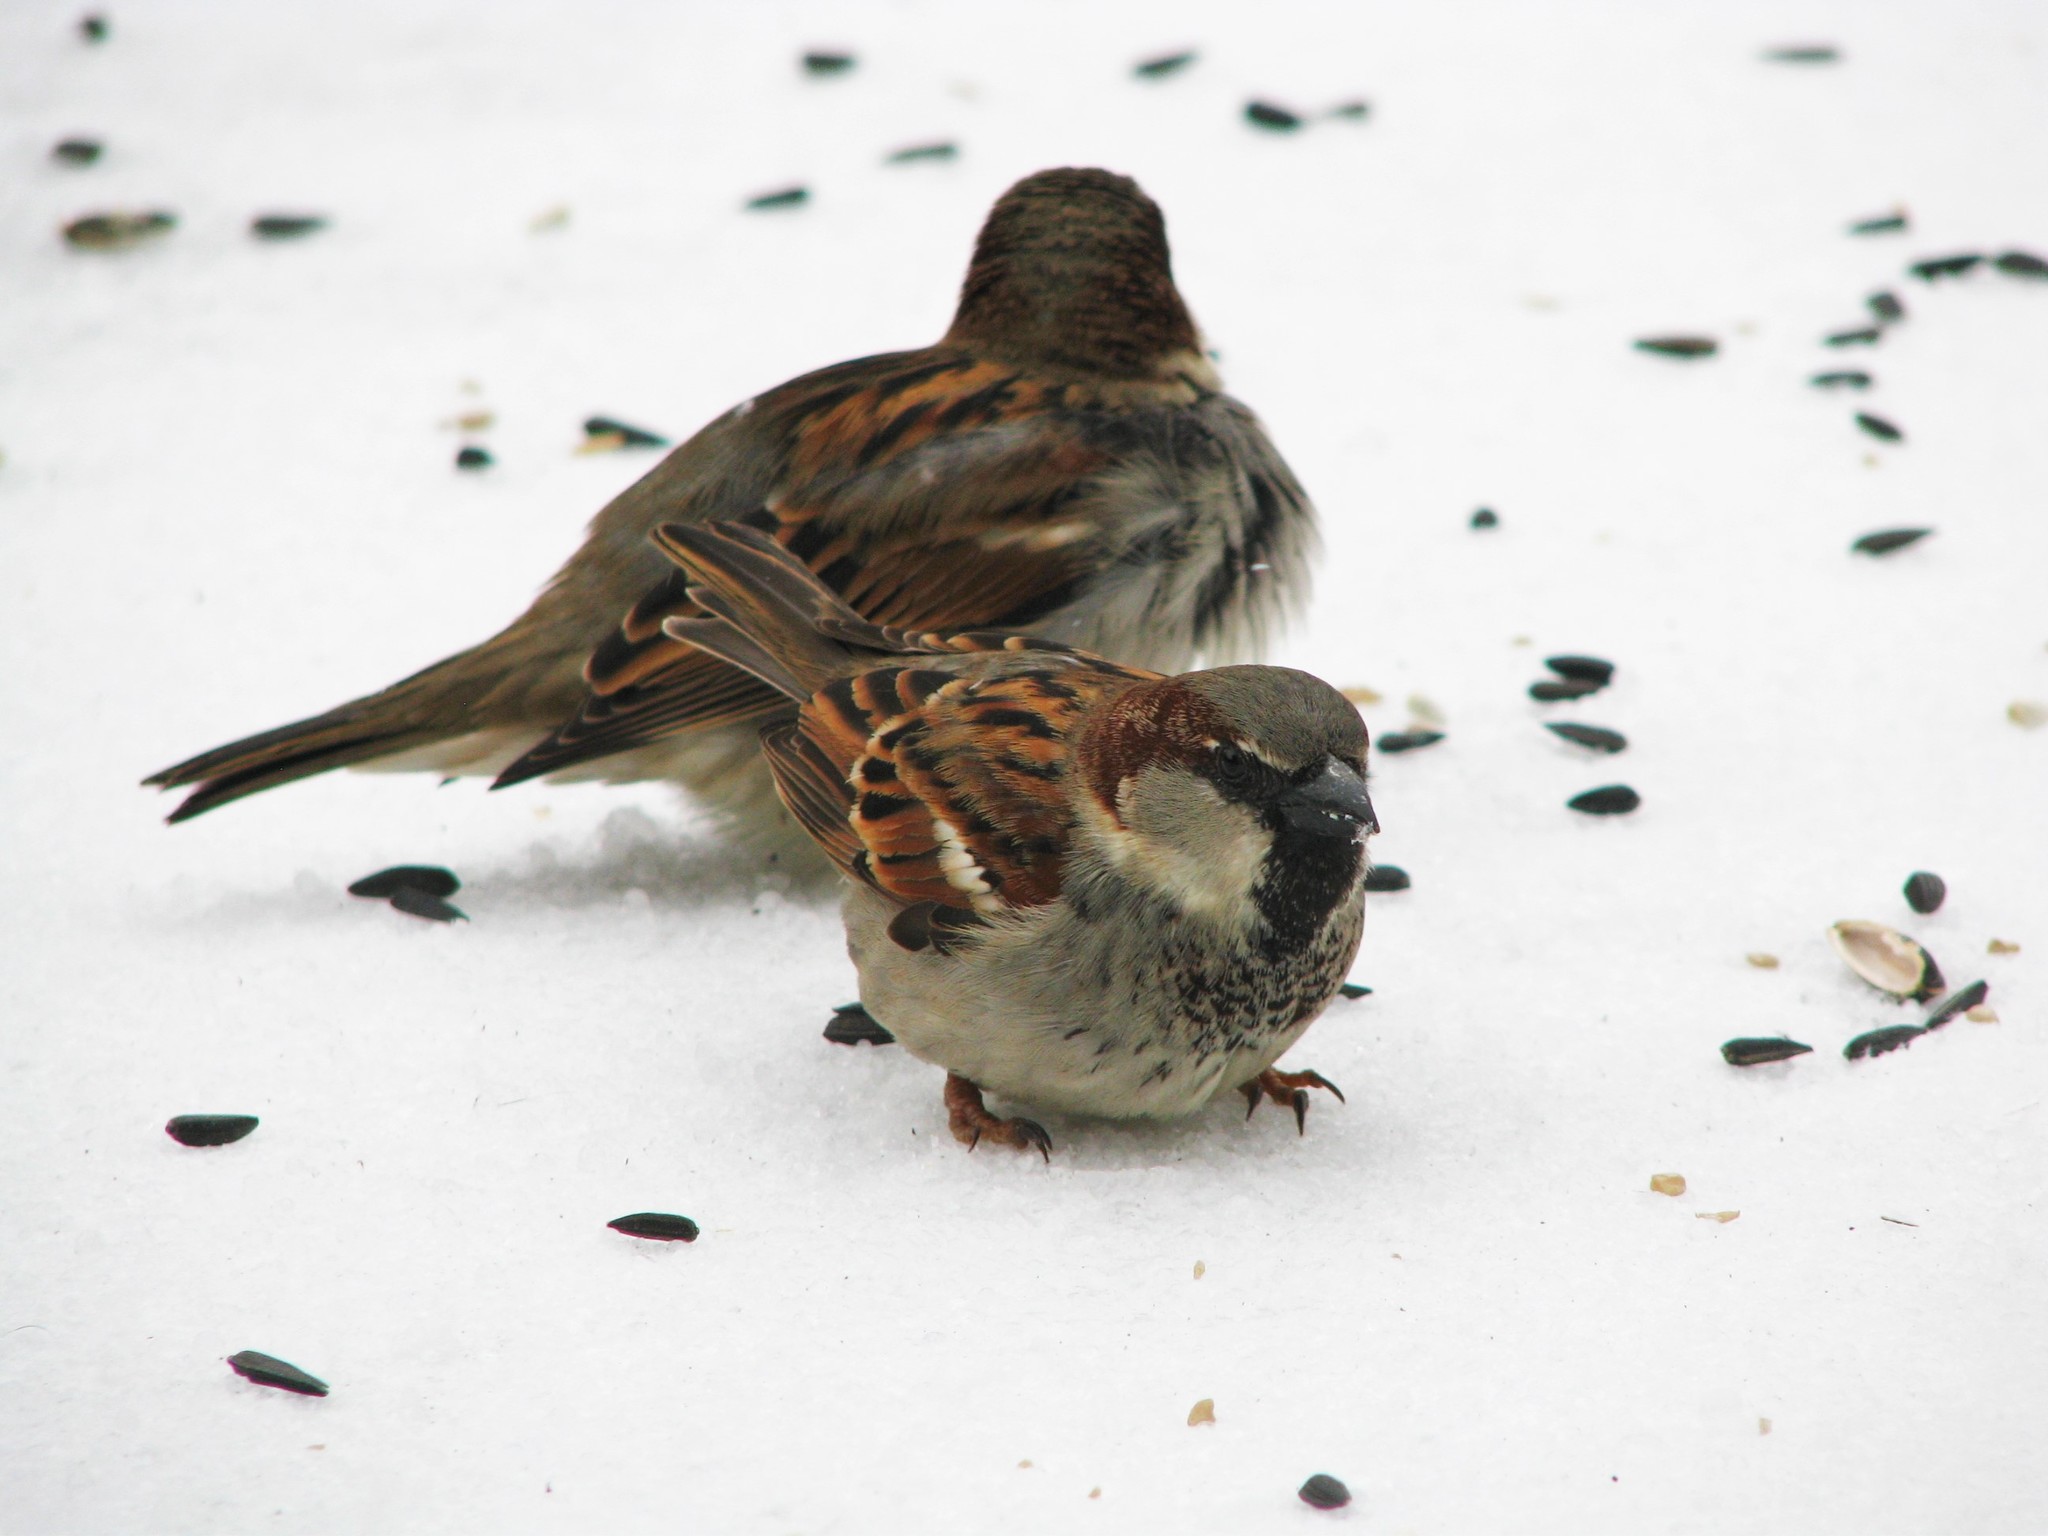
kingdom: Animalia
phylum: Chordata
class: Aves
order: Passeriformes
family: Passeridae
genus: Passer
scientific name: Passer domesticus
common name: House sparrow
